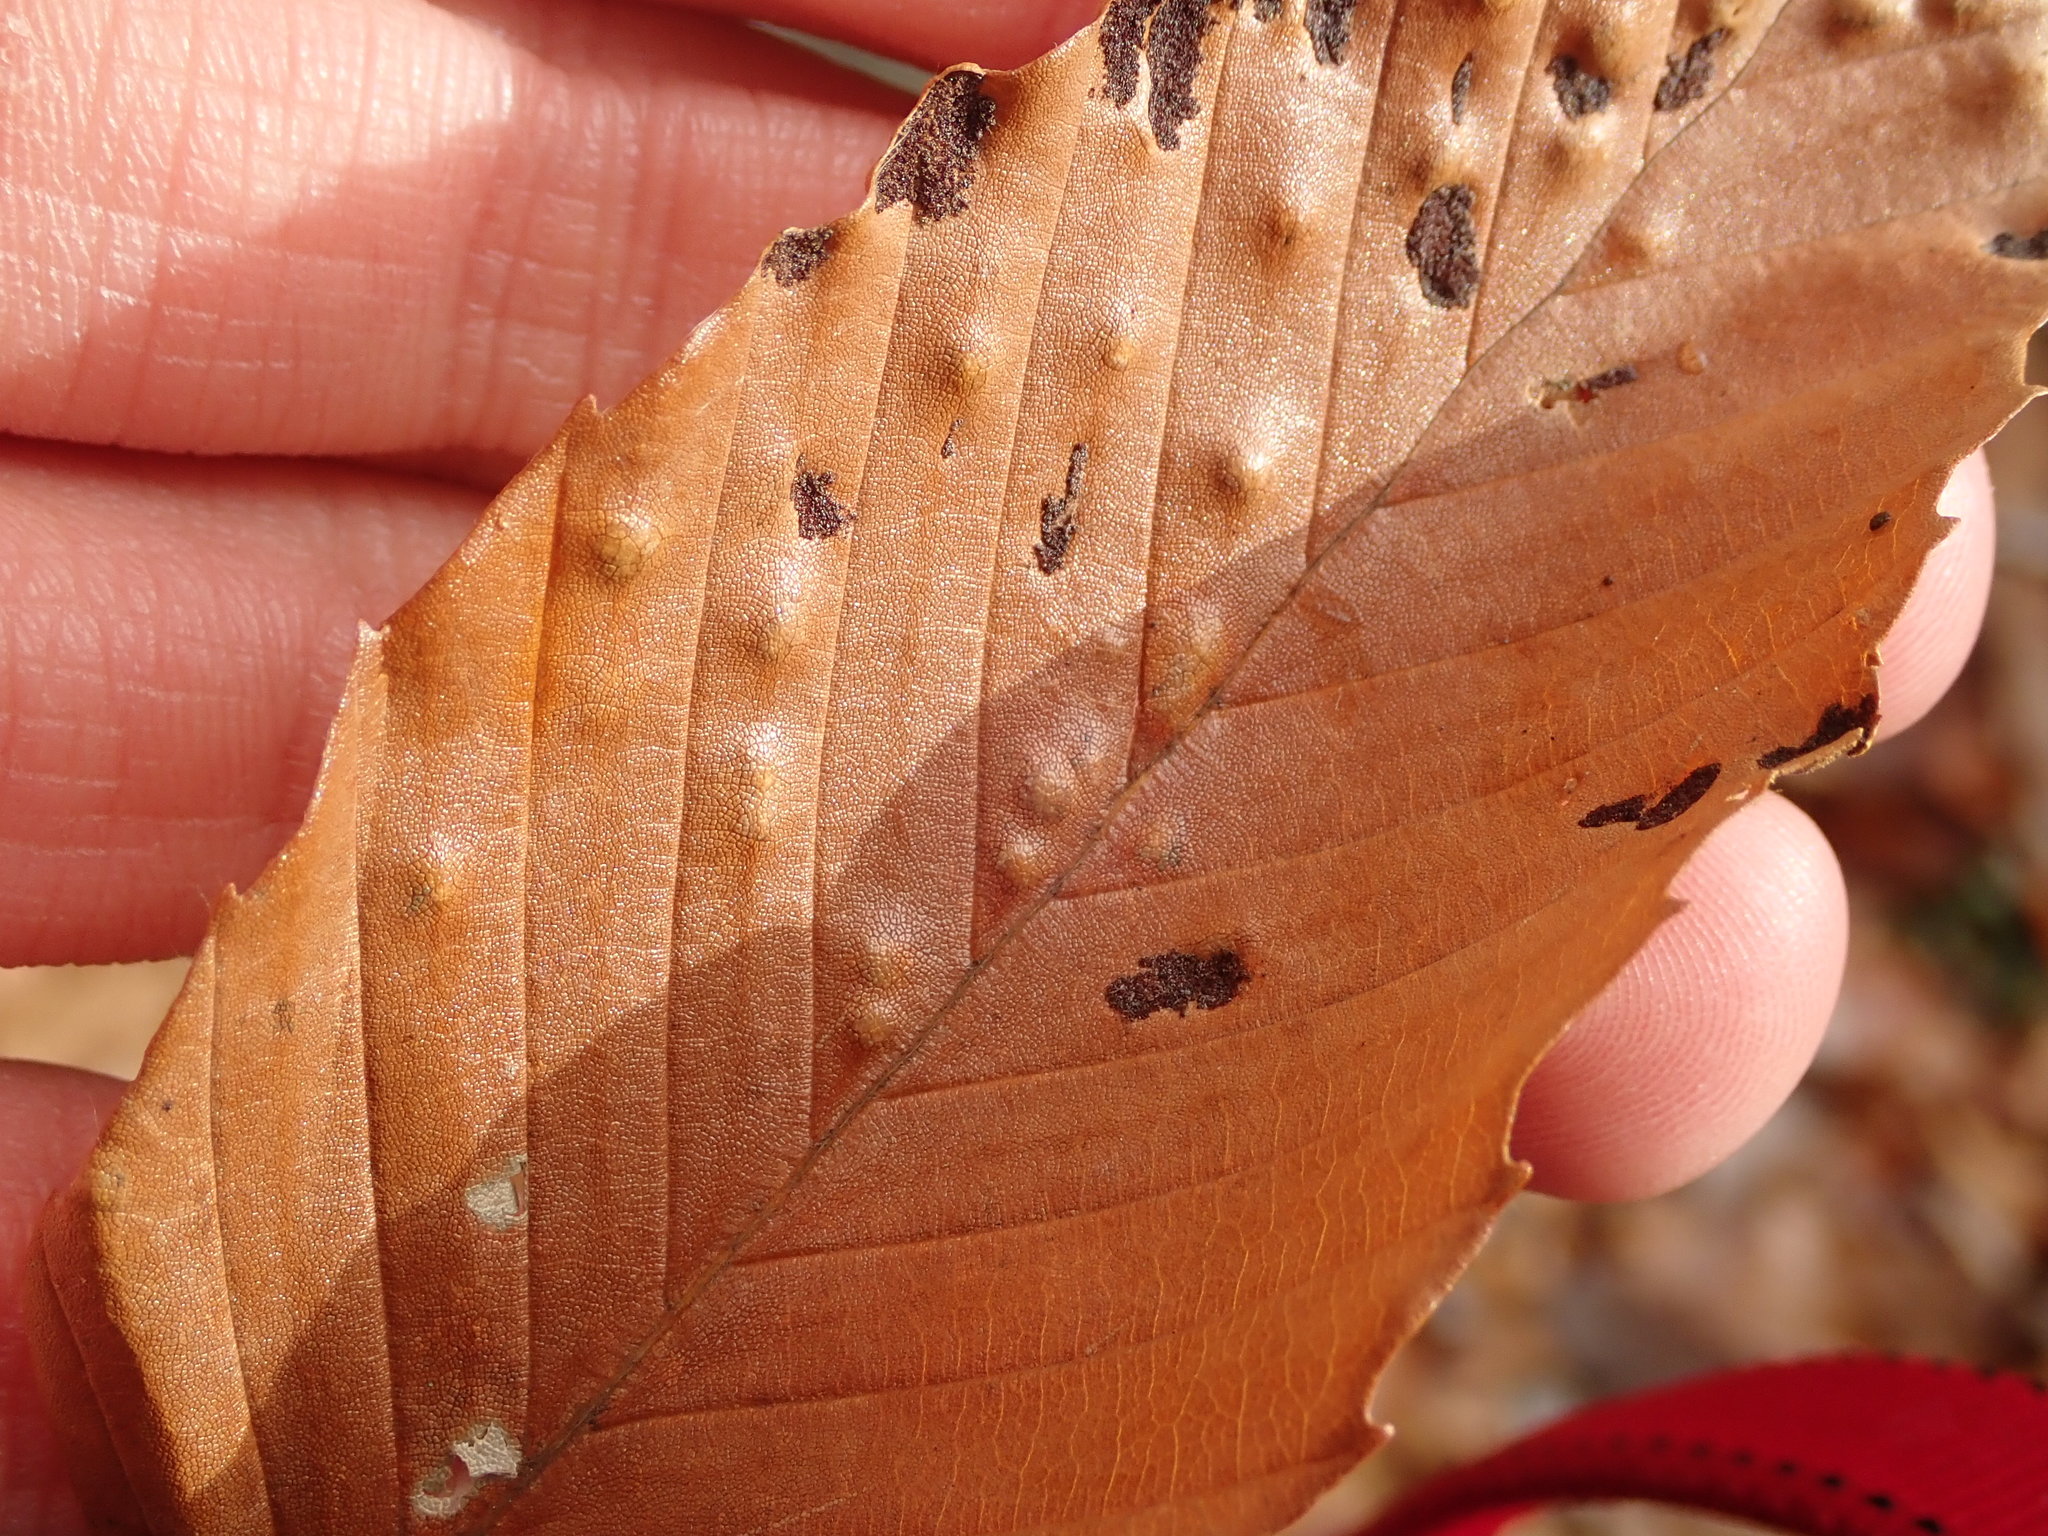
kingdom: Plantae
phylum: Tracheophyta
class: Magnoliopsida
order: Fagales
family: Fagaceae
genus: Fagus
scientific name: Fagus grandifolia
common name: American beech
